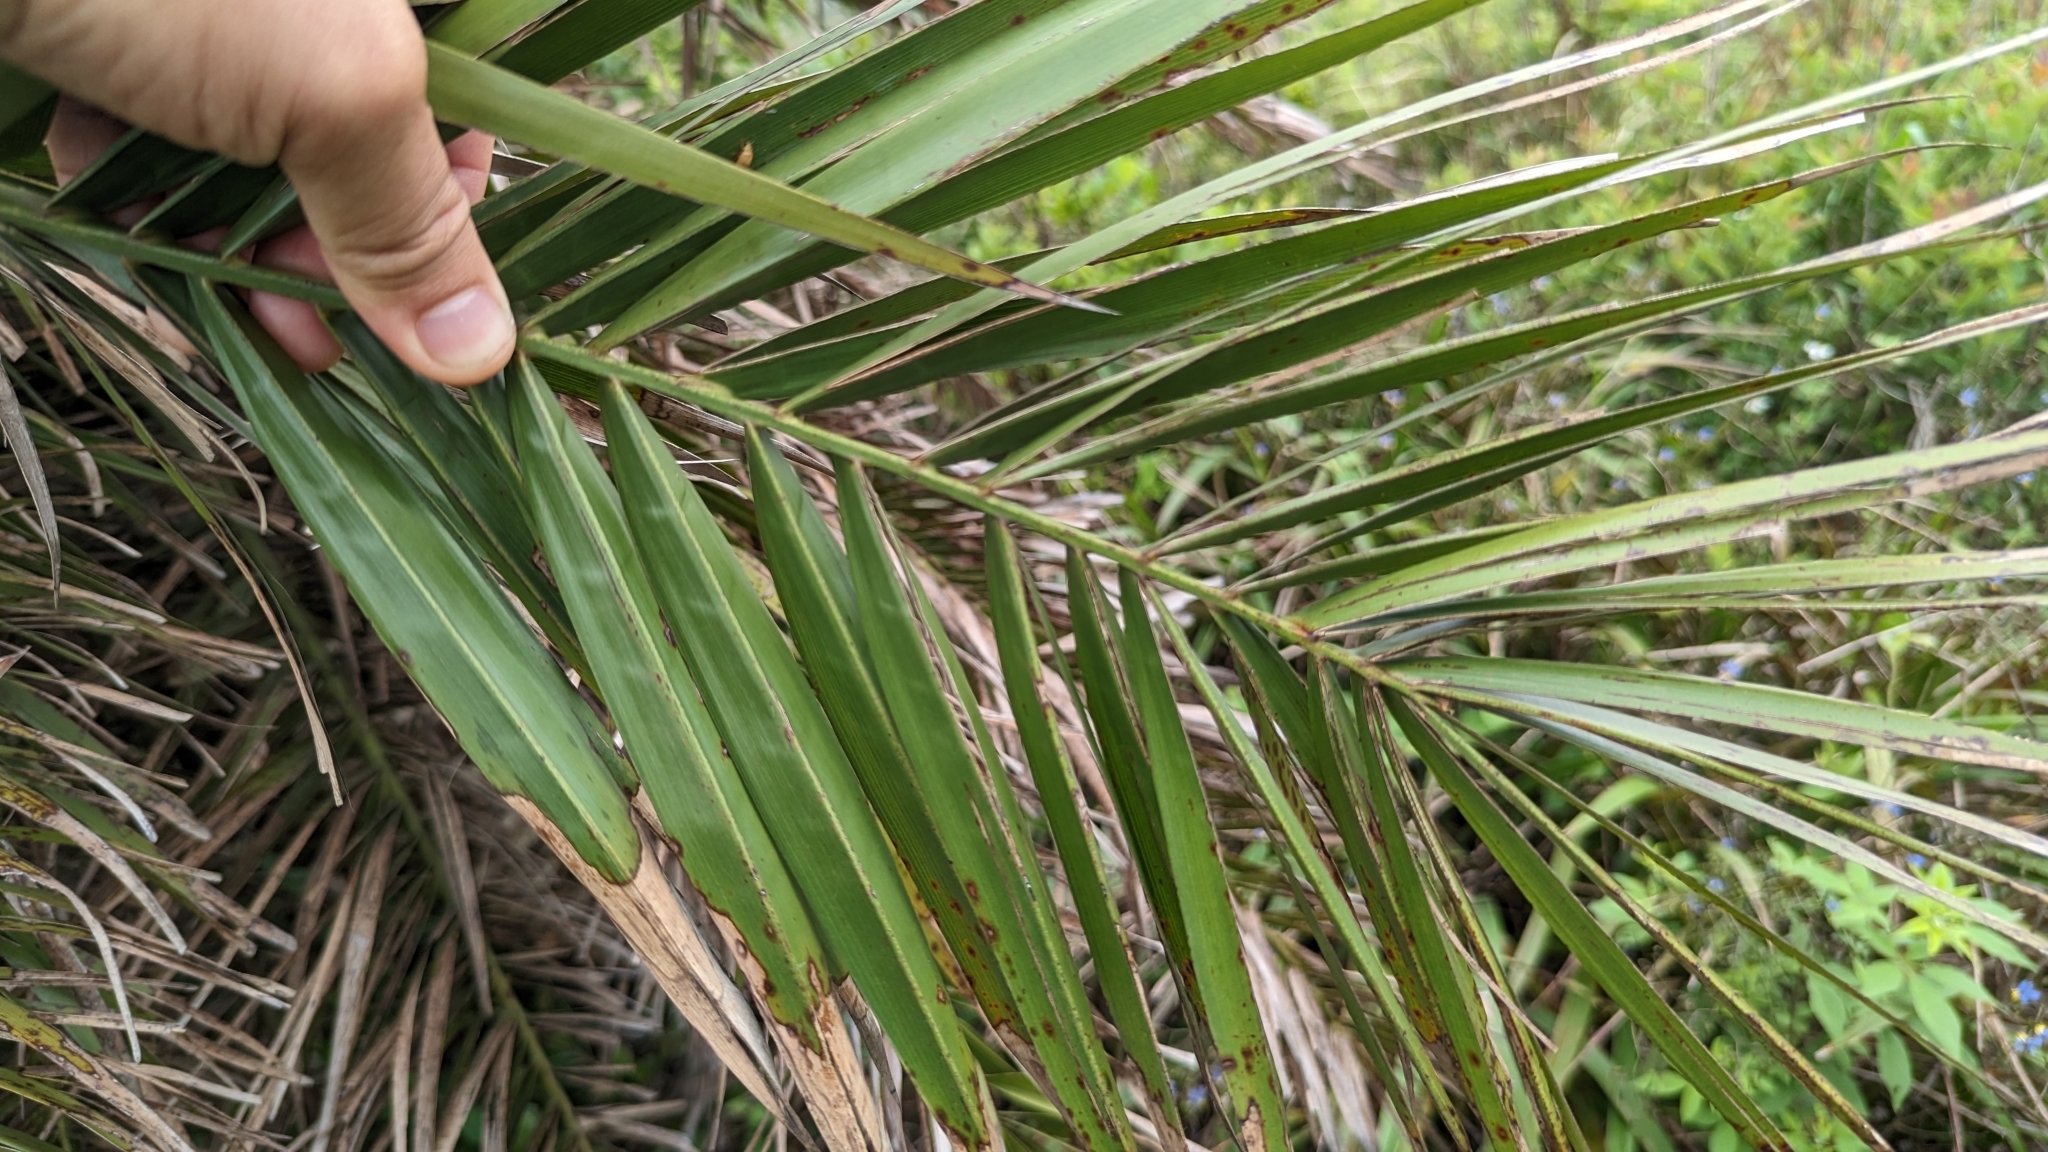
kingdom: Plantae
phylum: Tracheophyta
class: Liliopsida
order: Arecales
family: Arecaceae
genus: Phoenix
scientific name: Phoenix loureiroi
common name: Loureiro's palm
